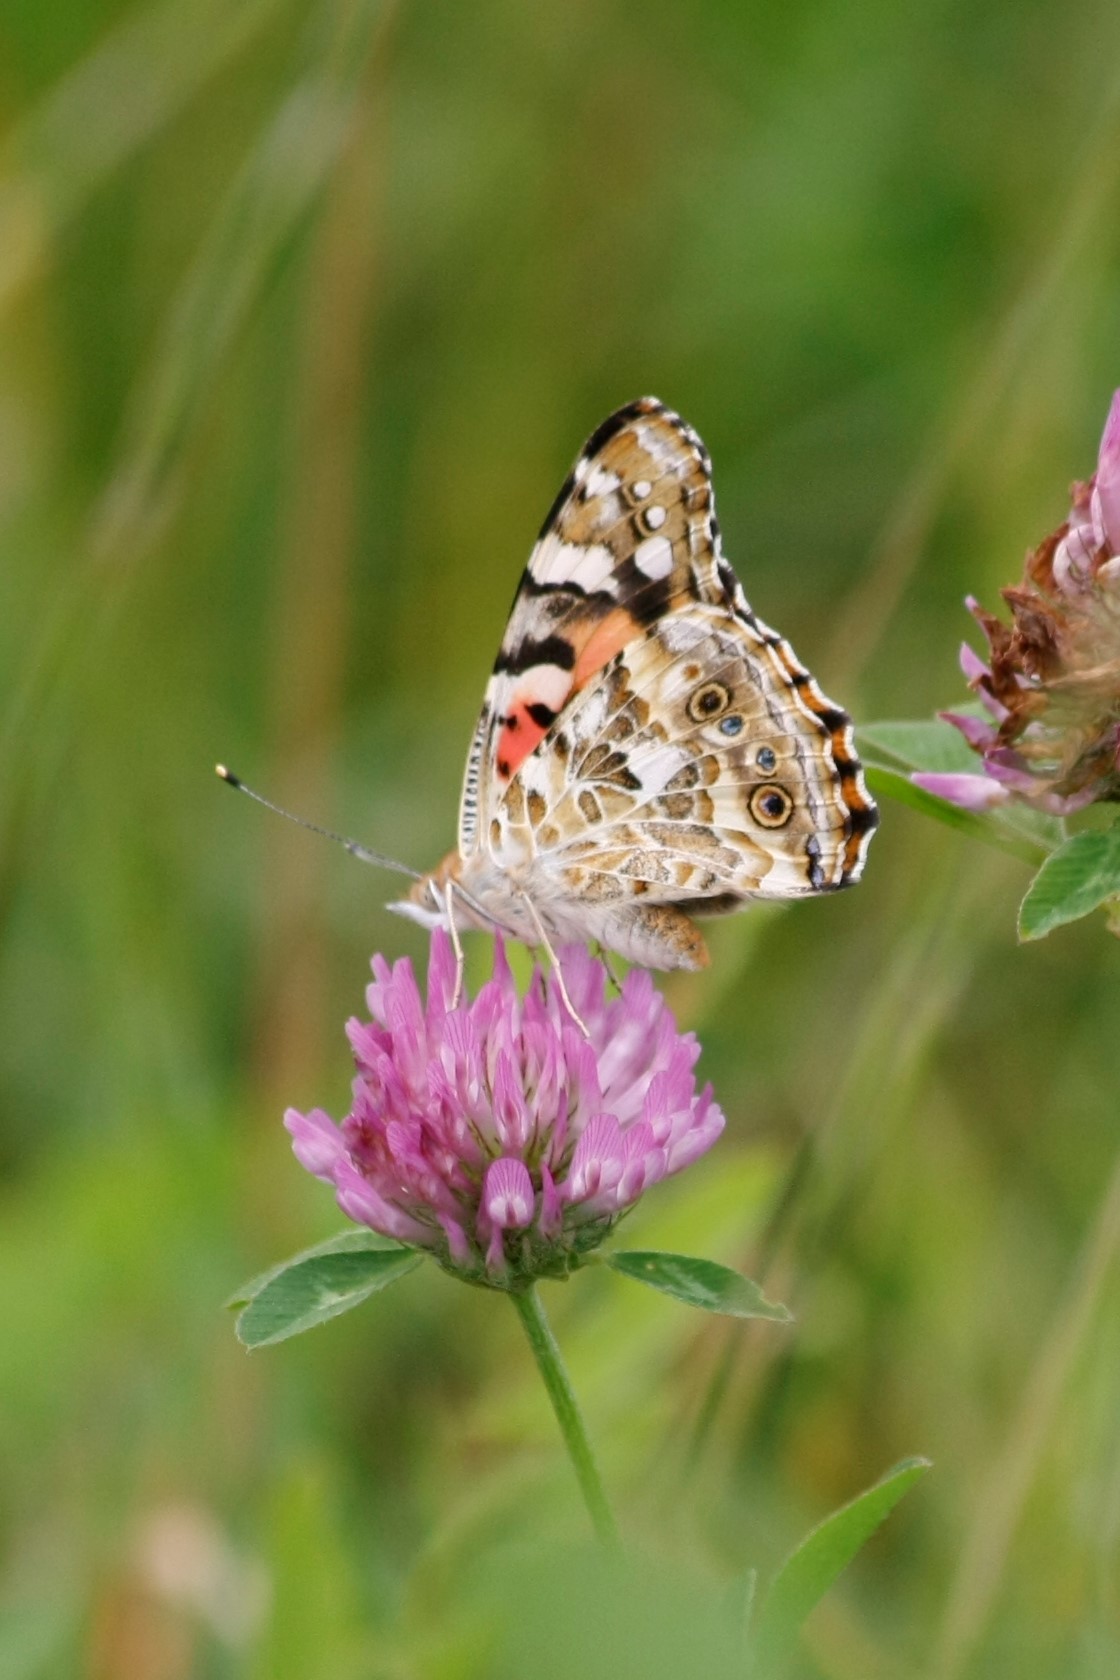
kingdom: Animalia
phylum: Arthropoda
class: Insecta
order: Lepidoptera
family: Nymphalidae
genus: Vanessa
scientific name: Vanessa cardui
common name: Painted lady
